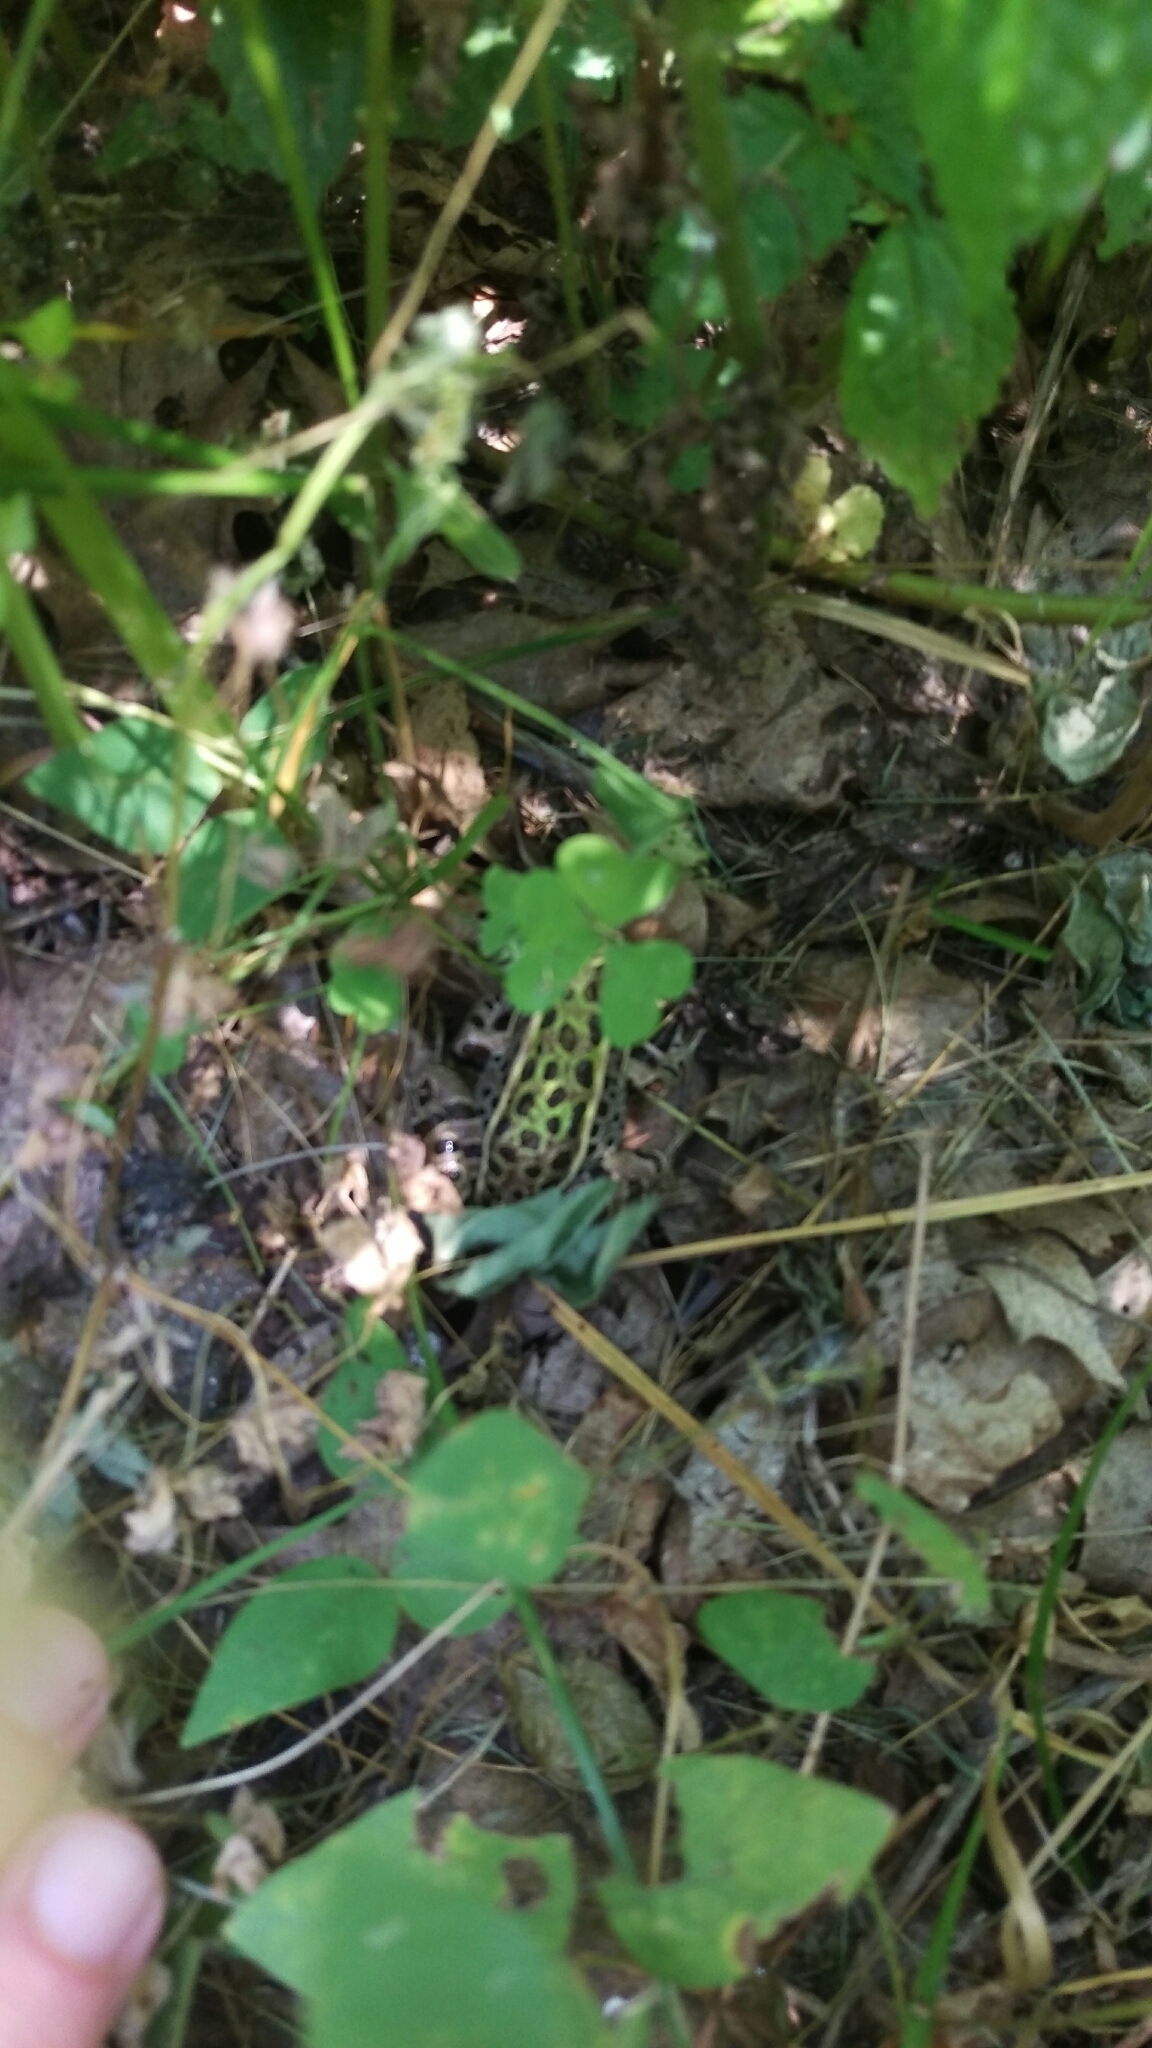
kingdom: Animalia
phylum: Chordata
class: Amphibia
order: Anura
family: Ranidae
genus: Lithobates
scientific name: Lithobates pipiens
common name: Northern leopard frog
